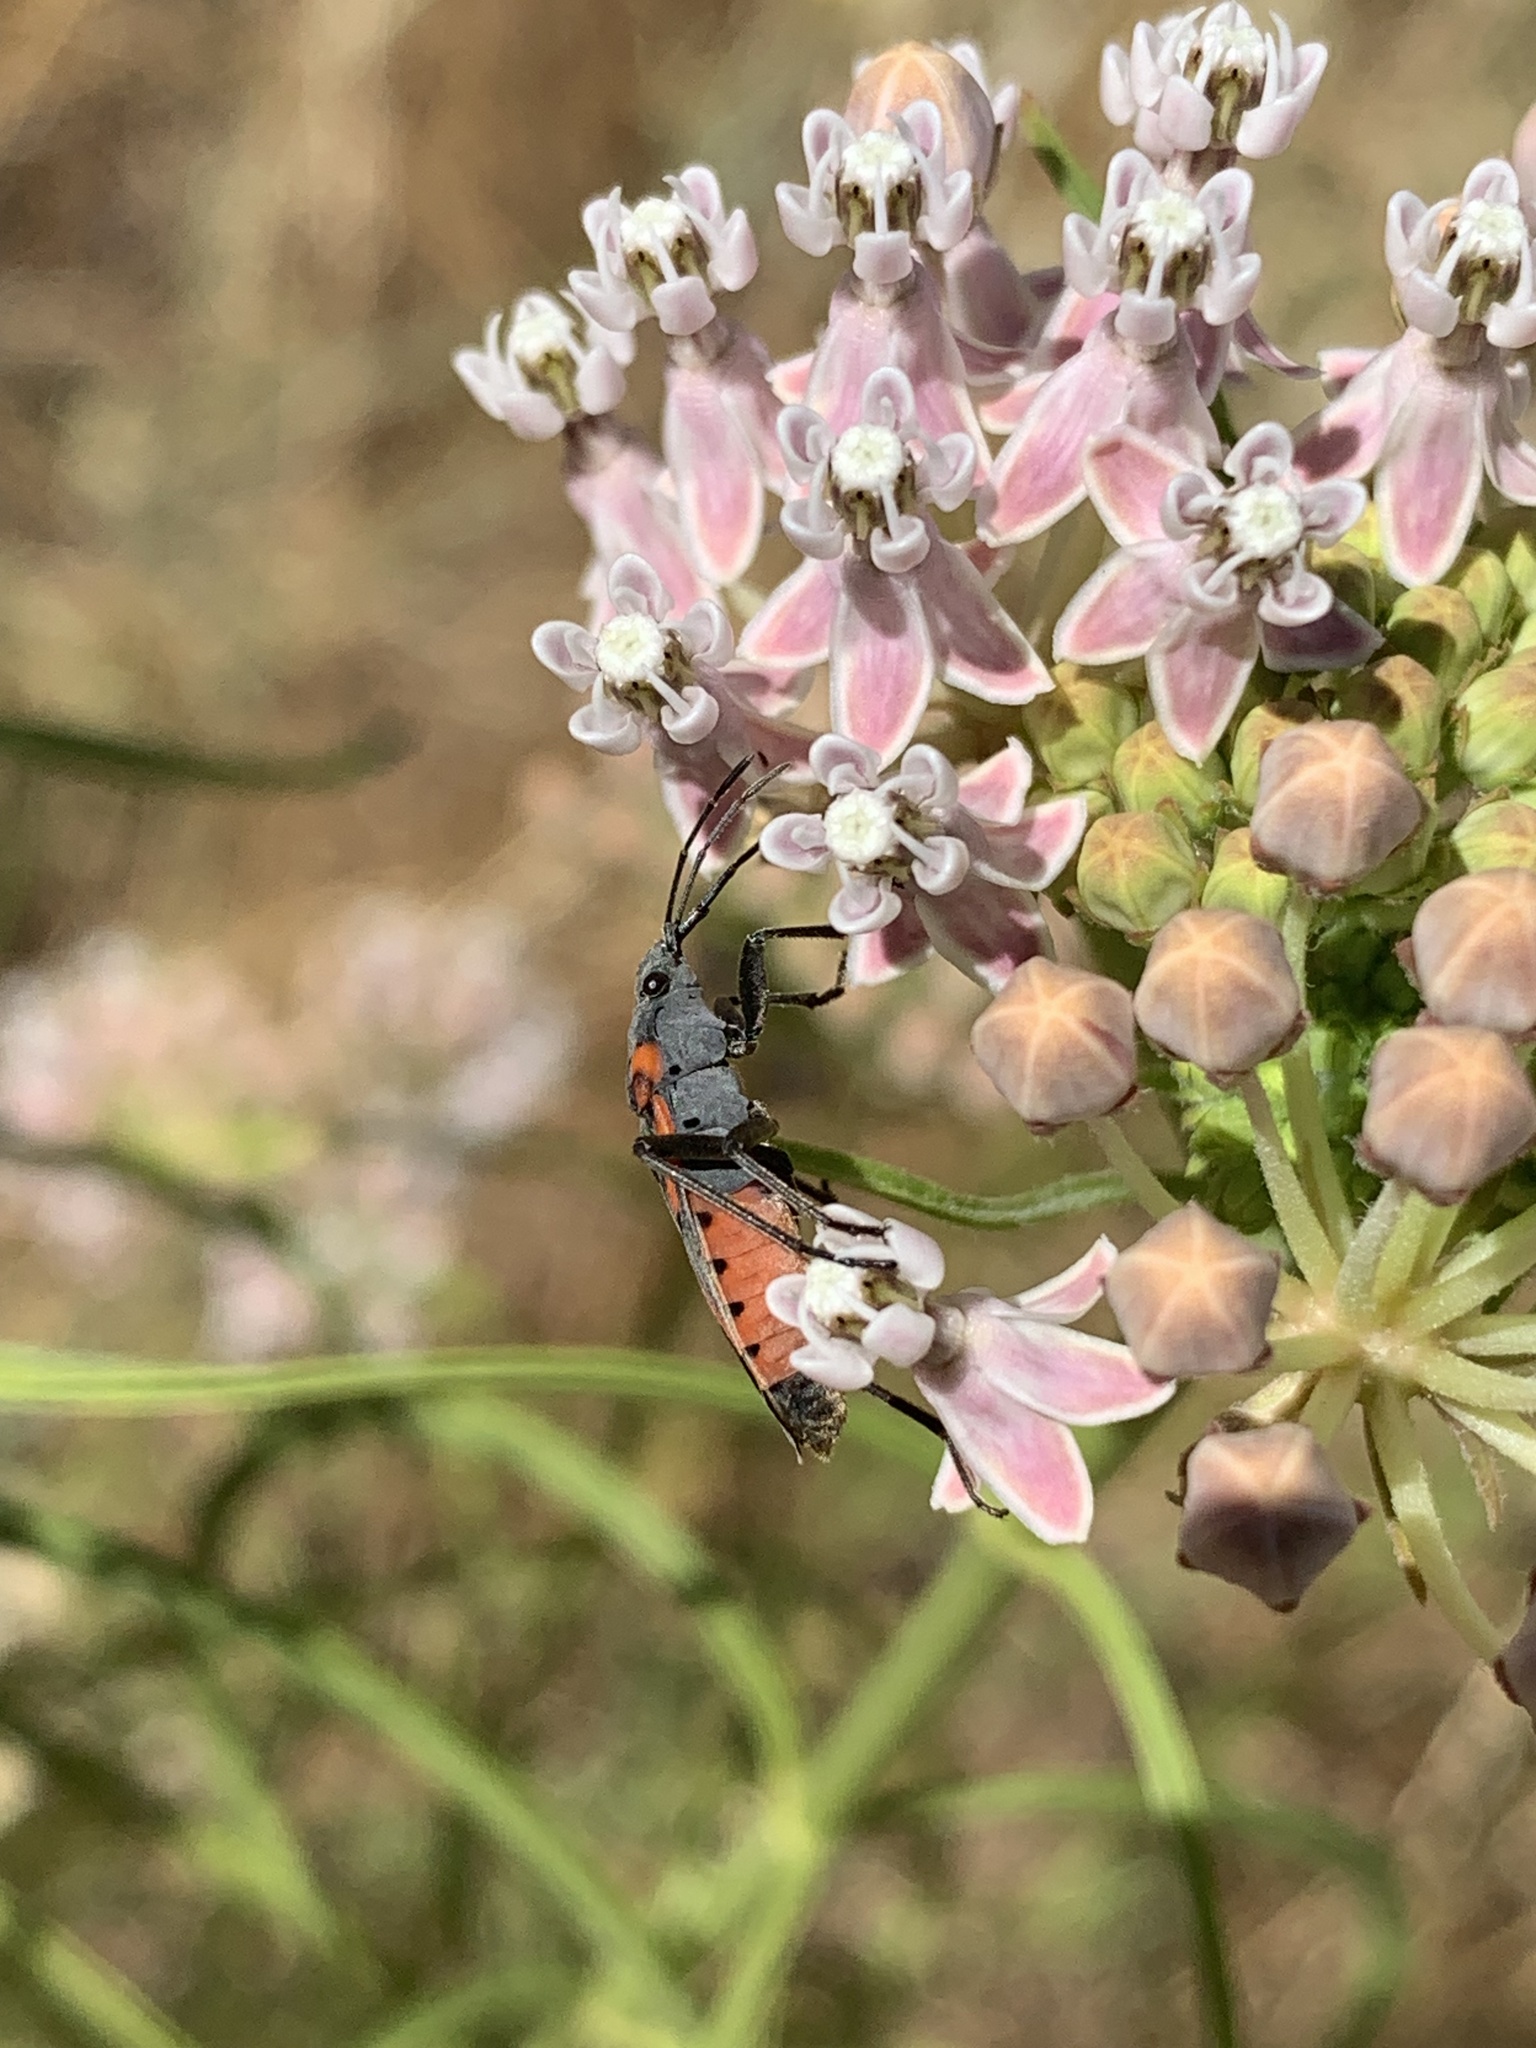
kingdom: Animalia
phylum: Arthropoda
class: Insecta
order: Hemiptera
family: Lygaeidae
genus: Lygaeus
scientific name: Lygaeus kalmii
